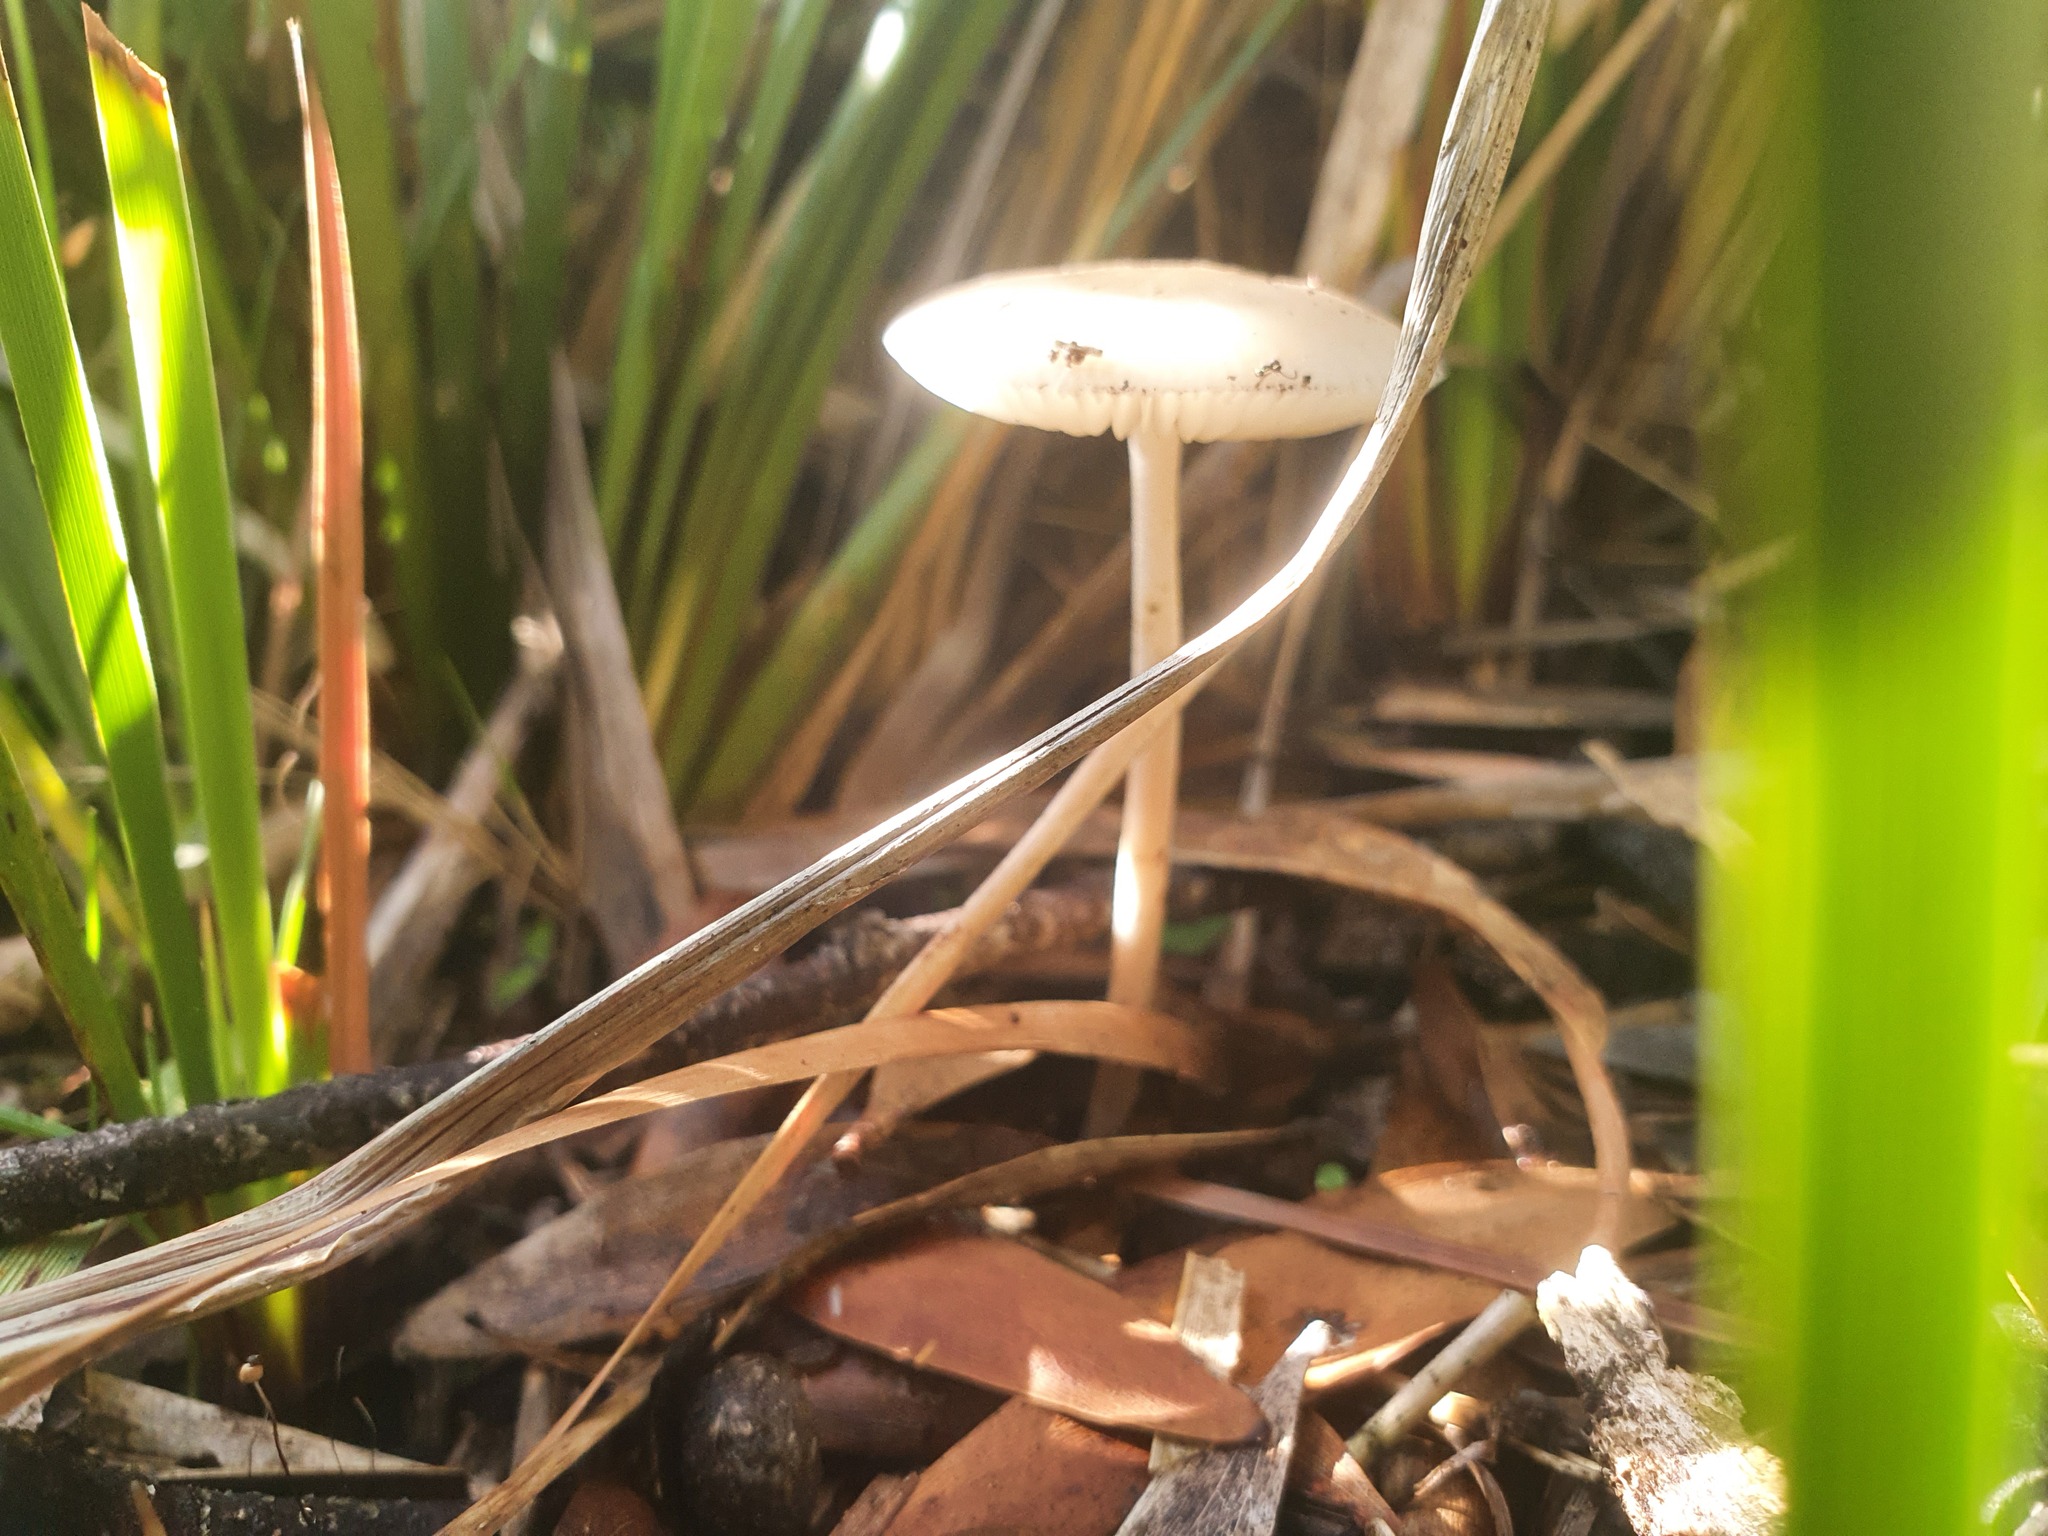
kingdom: Fungi
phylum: Basidiomycota
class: Agaricomycetes
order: Agaricales
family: Physalacriaceae
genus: Hymenopellis
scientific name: Hymenopellis gigaspora
